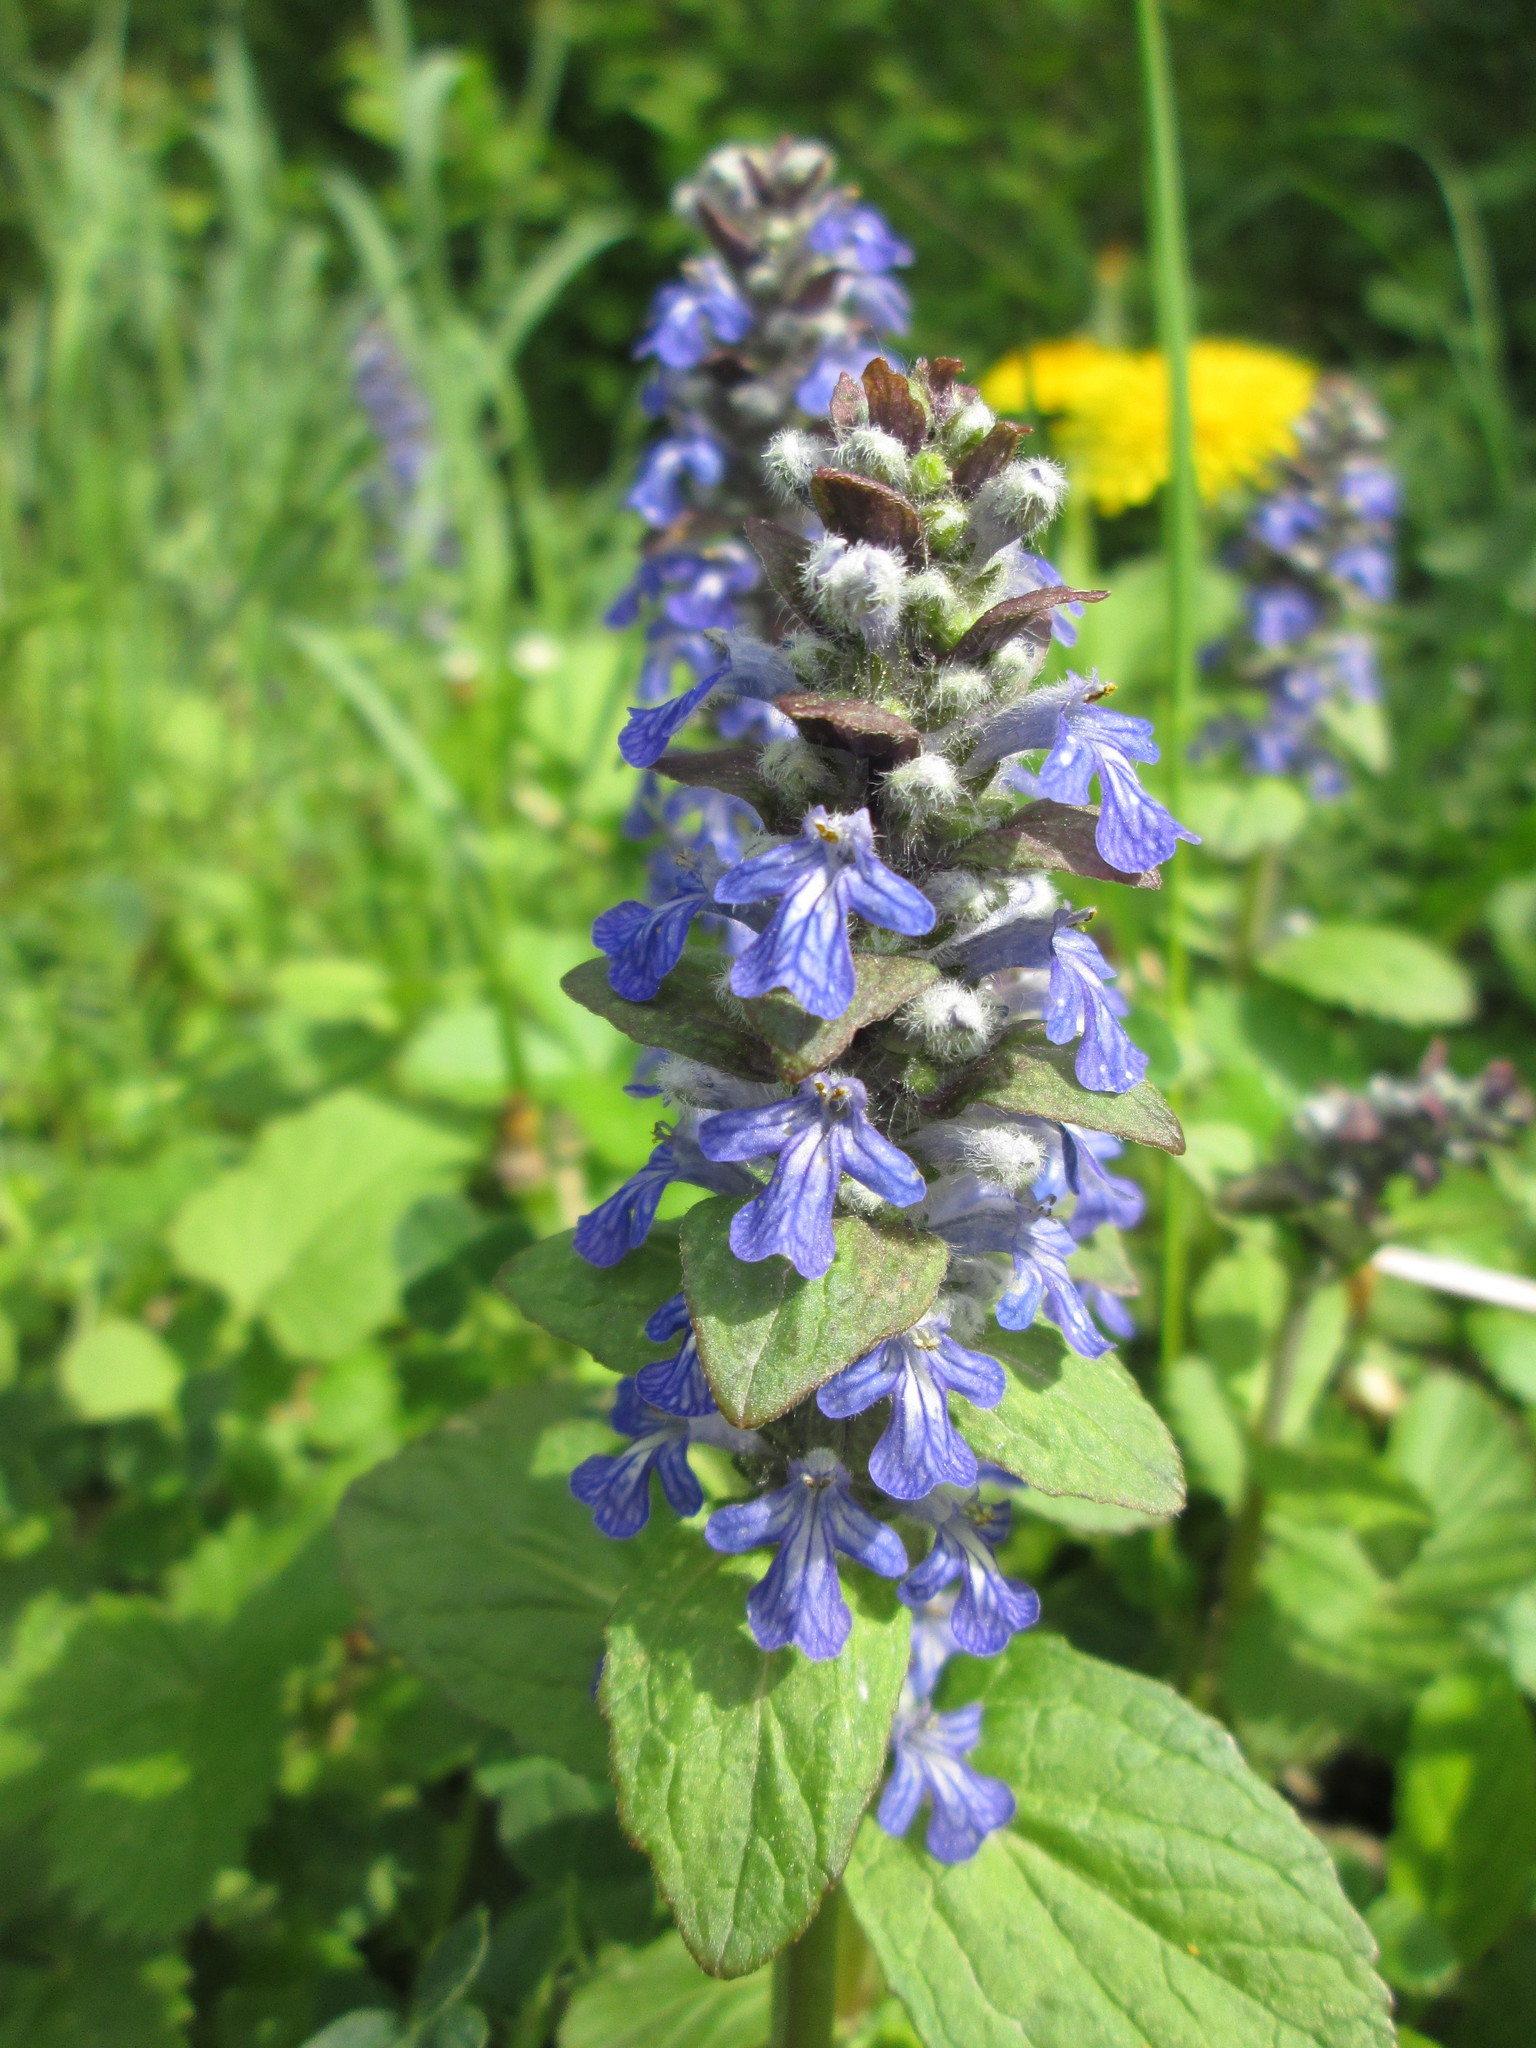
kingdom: Plantae
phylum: Tracheophyta
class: Magnoliopsida
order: Lamiales
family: Lamiaceae
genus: Ajuga
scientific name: Ajuga reptans
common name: Bugle
